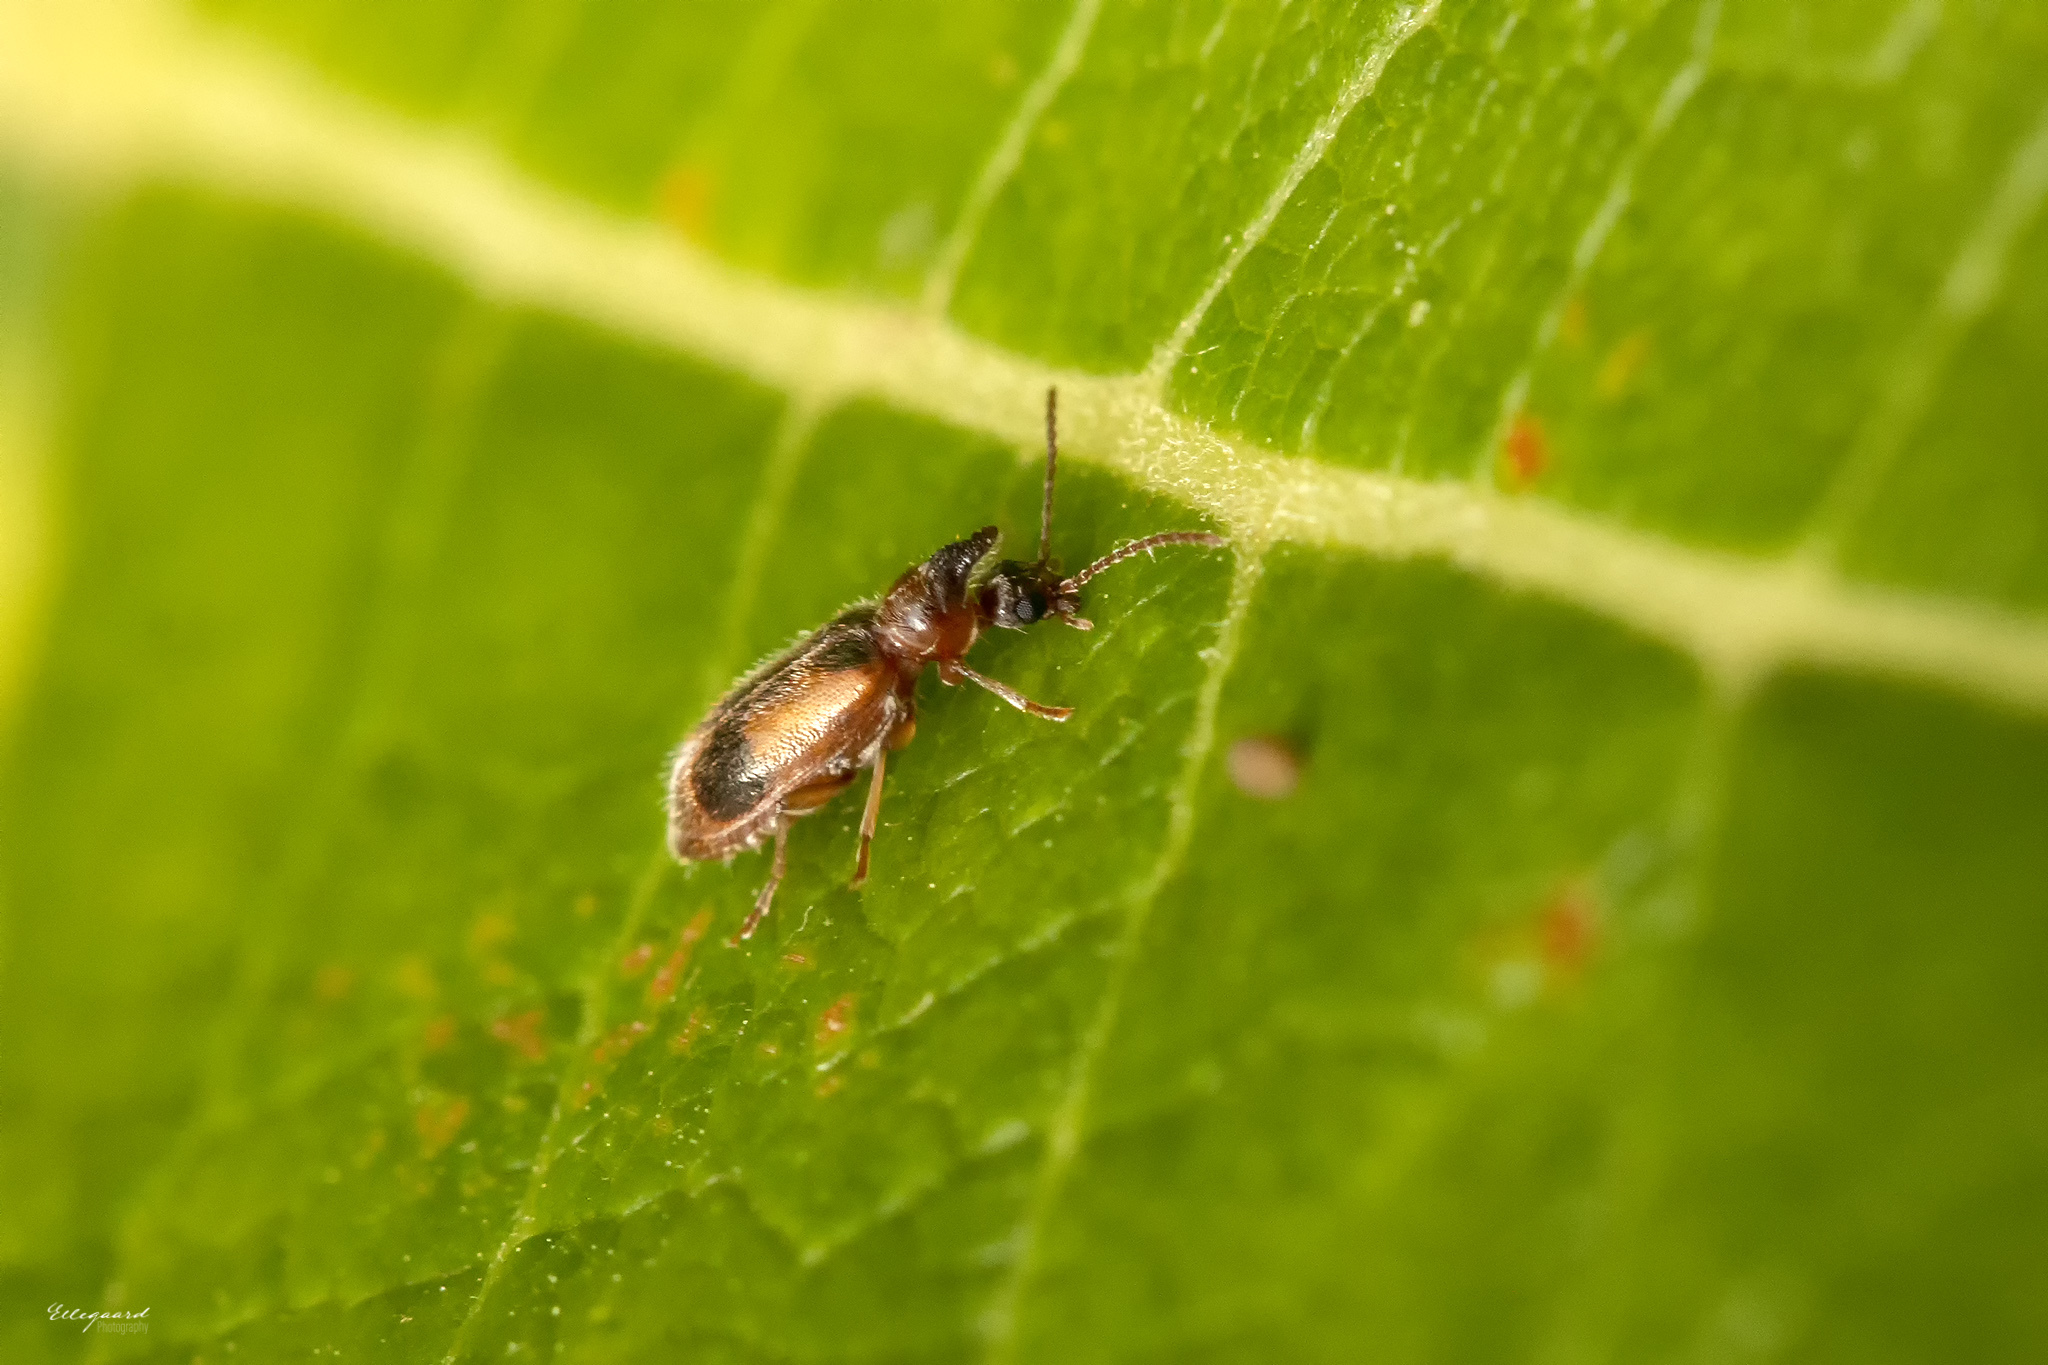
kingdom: Animalia
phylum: Arthropoda
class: Insecta
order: Coleoptera
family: Anthicidae
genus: Notoxus
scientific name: Notoxus monoceros
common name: Monoceros beetle
